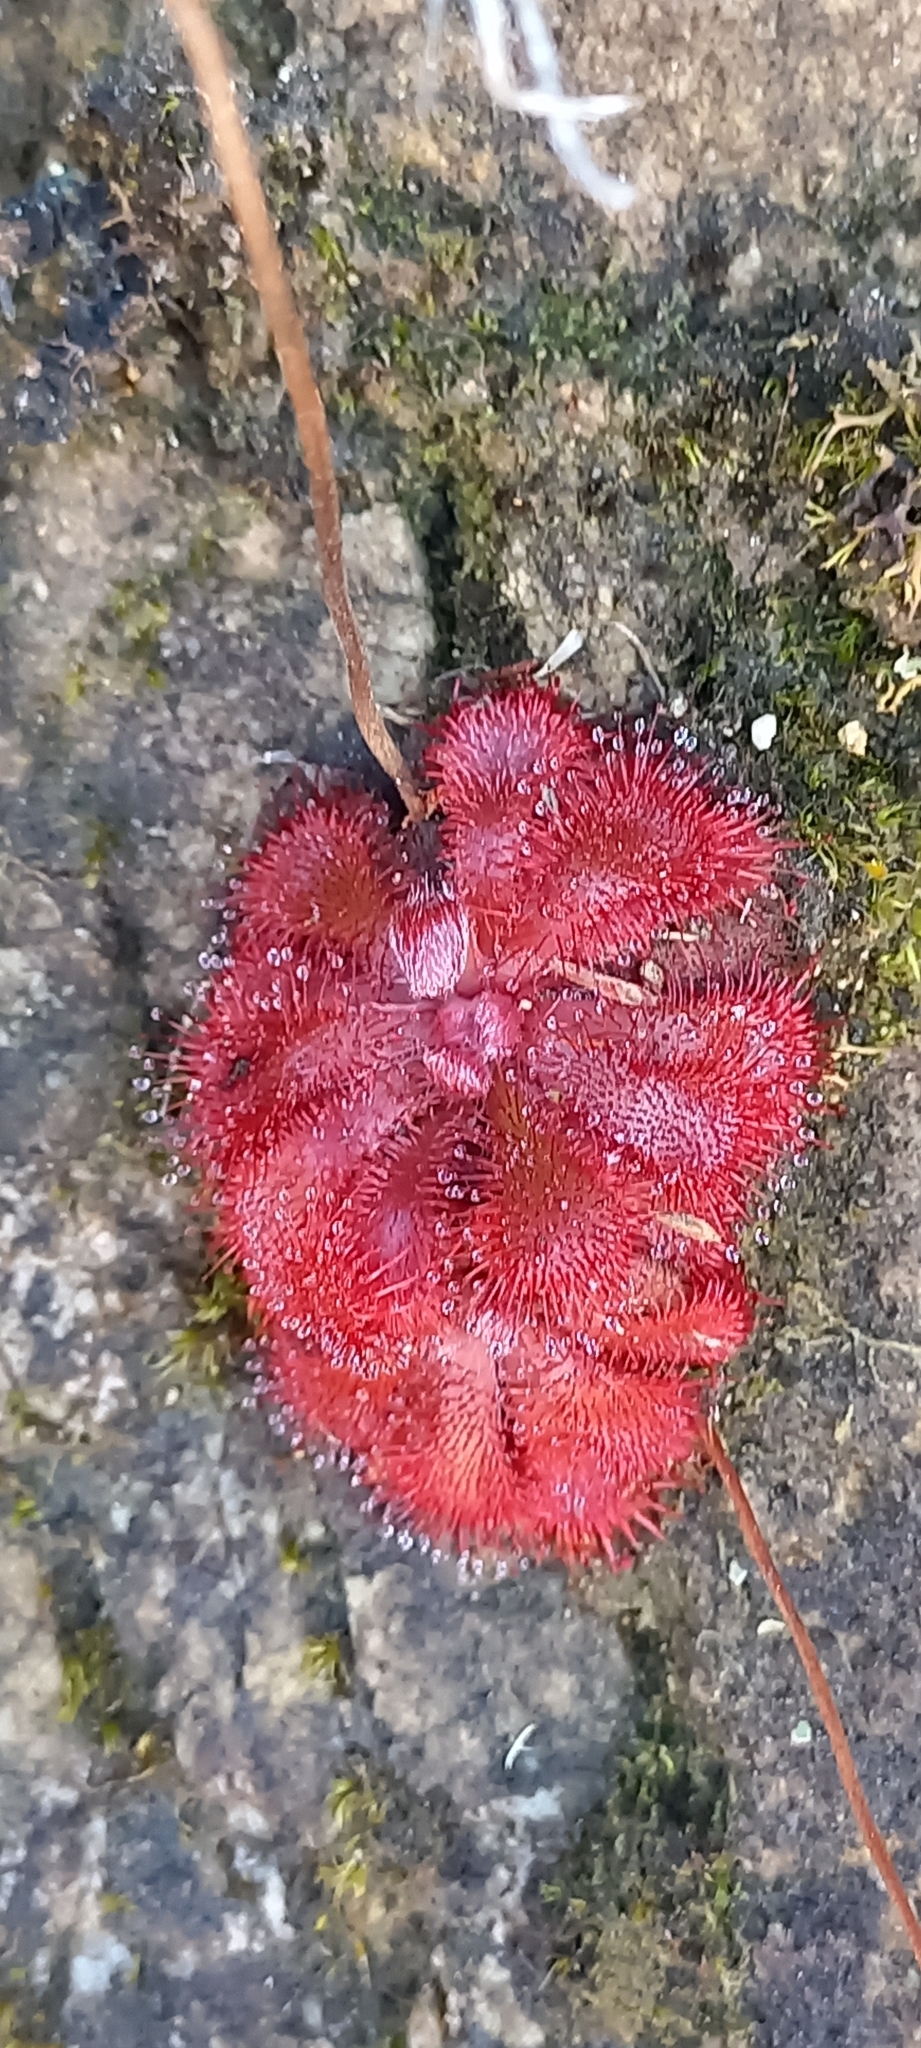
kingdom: Plantae
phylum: Tracheophyta
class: Magnoliopsida
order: Caryophyllales
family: Droseraceae
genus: Drosera
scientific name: Drosera aliciae
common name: Alice sundew
